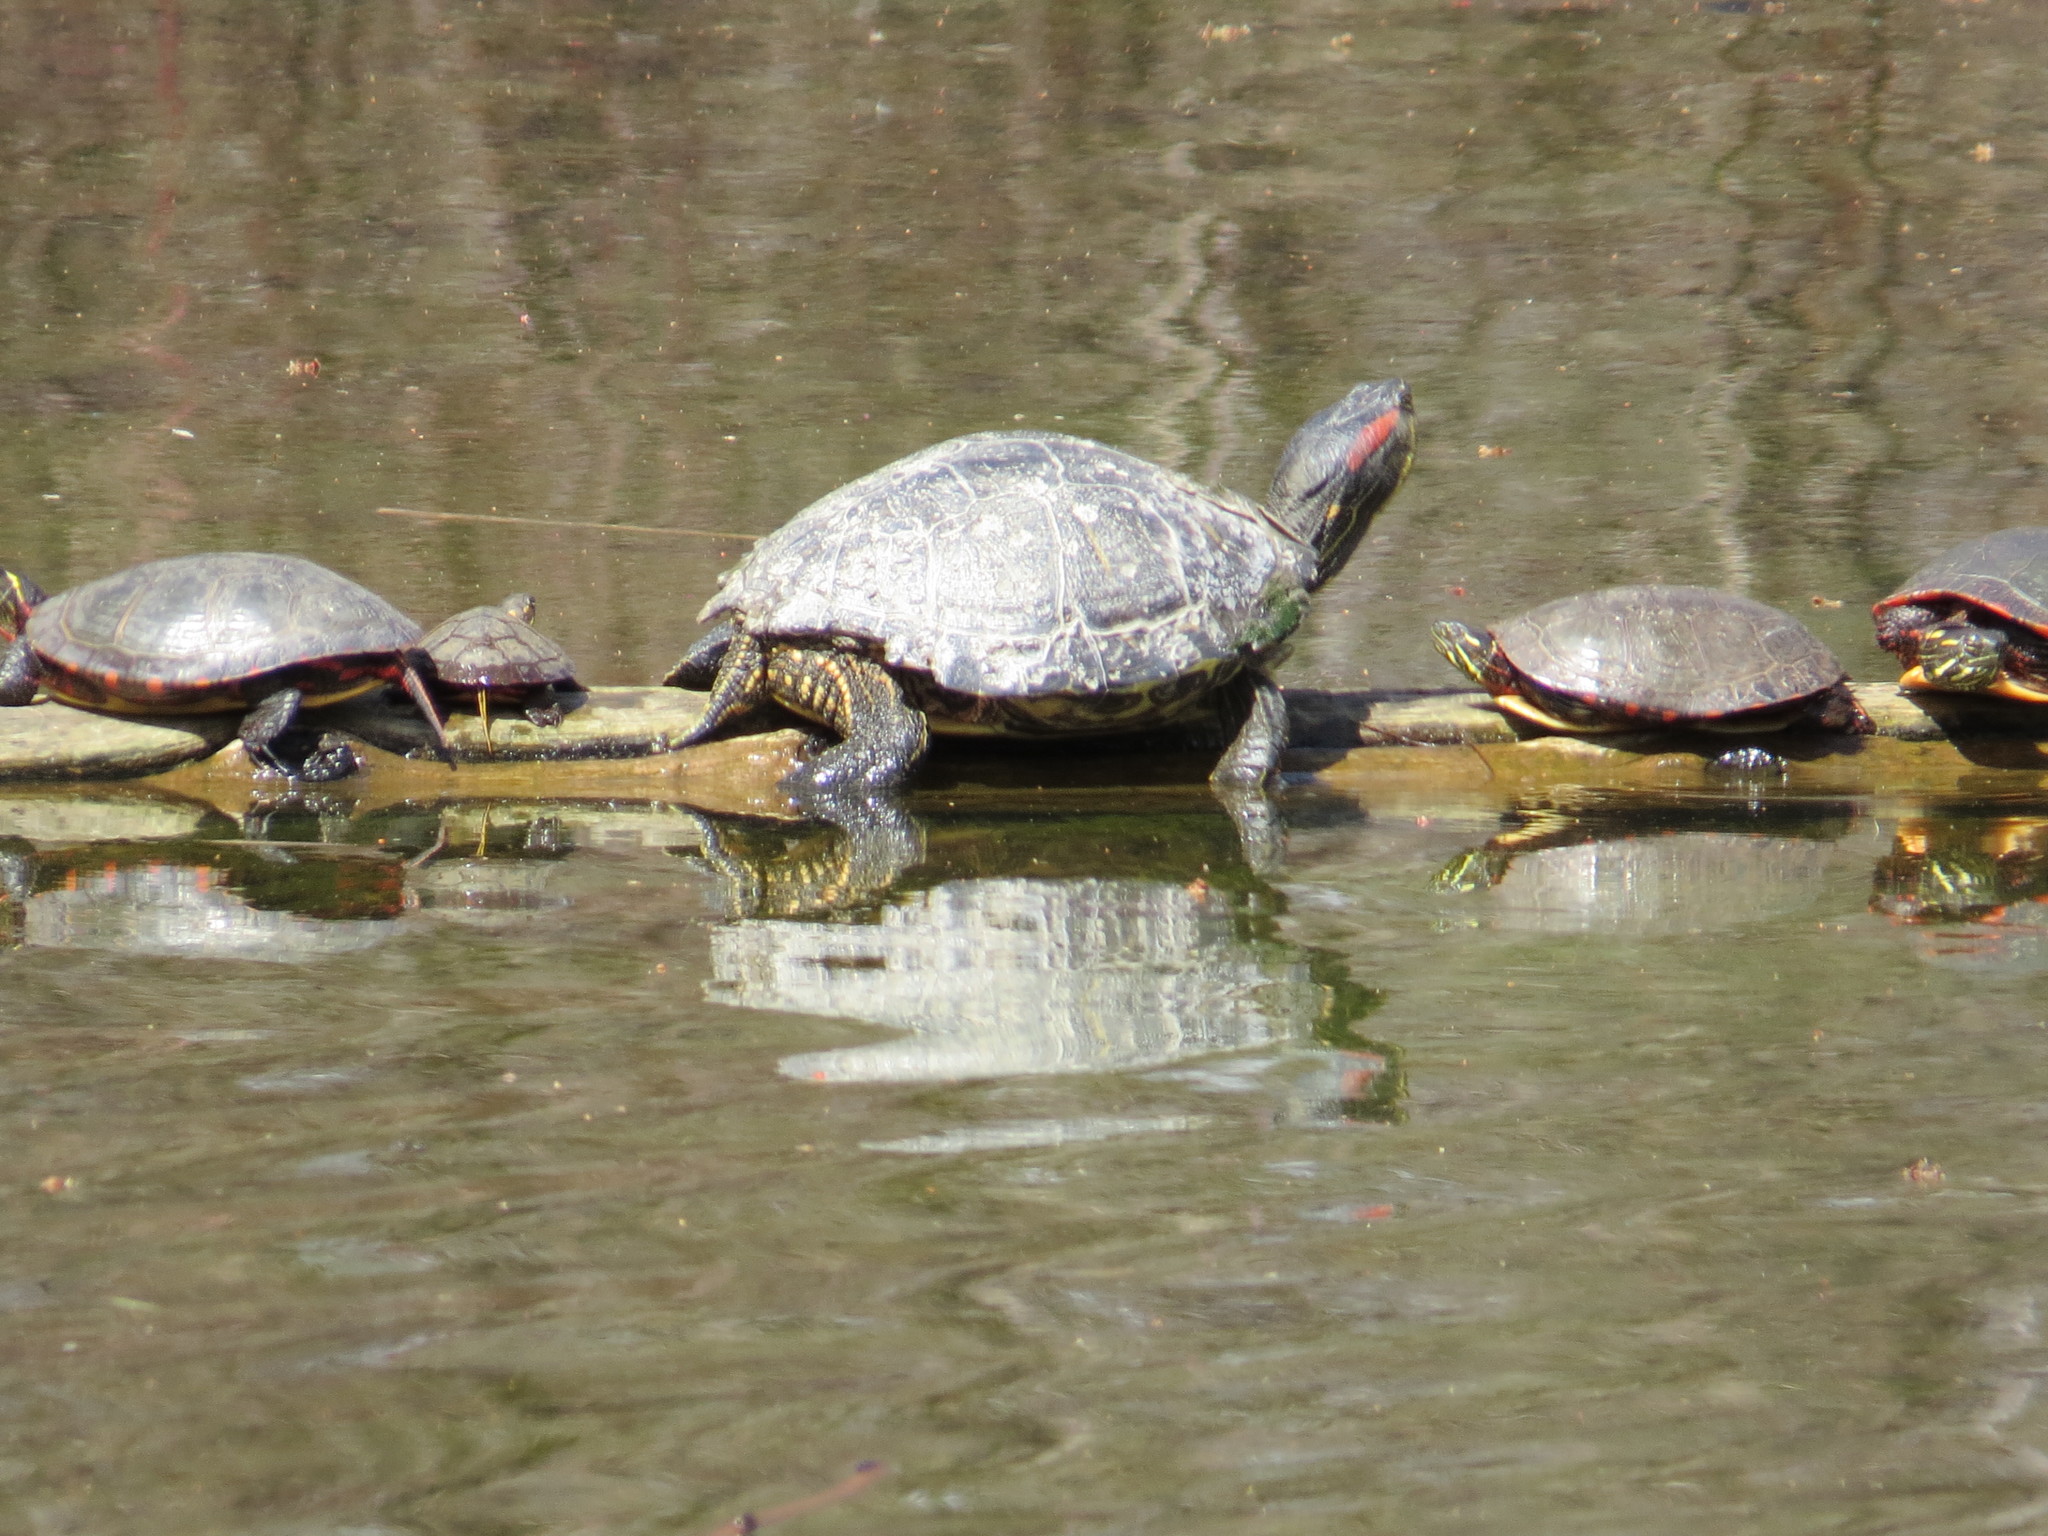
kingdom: Animalia
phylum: Chordata
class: Testudines
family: Emydidae
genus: Chrysemys
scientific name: Chrysemys picta
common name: Painted turtle
